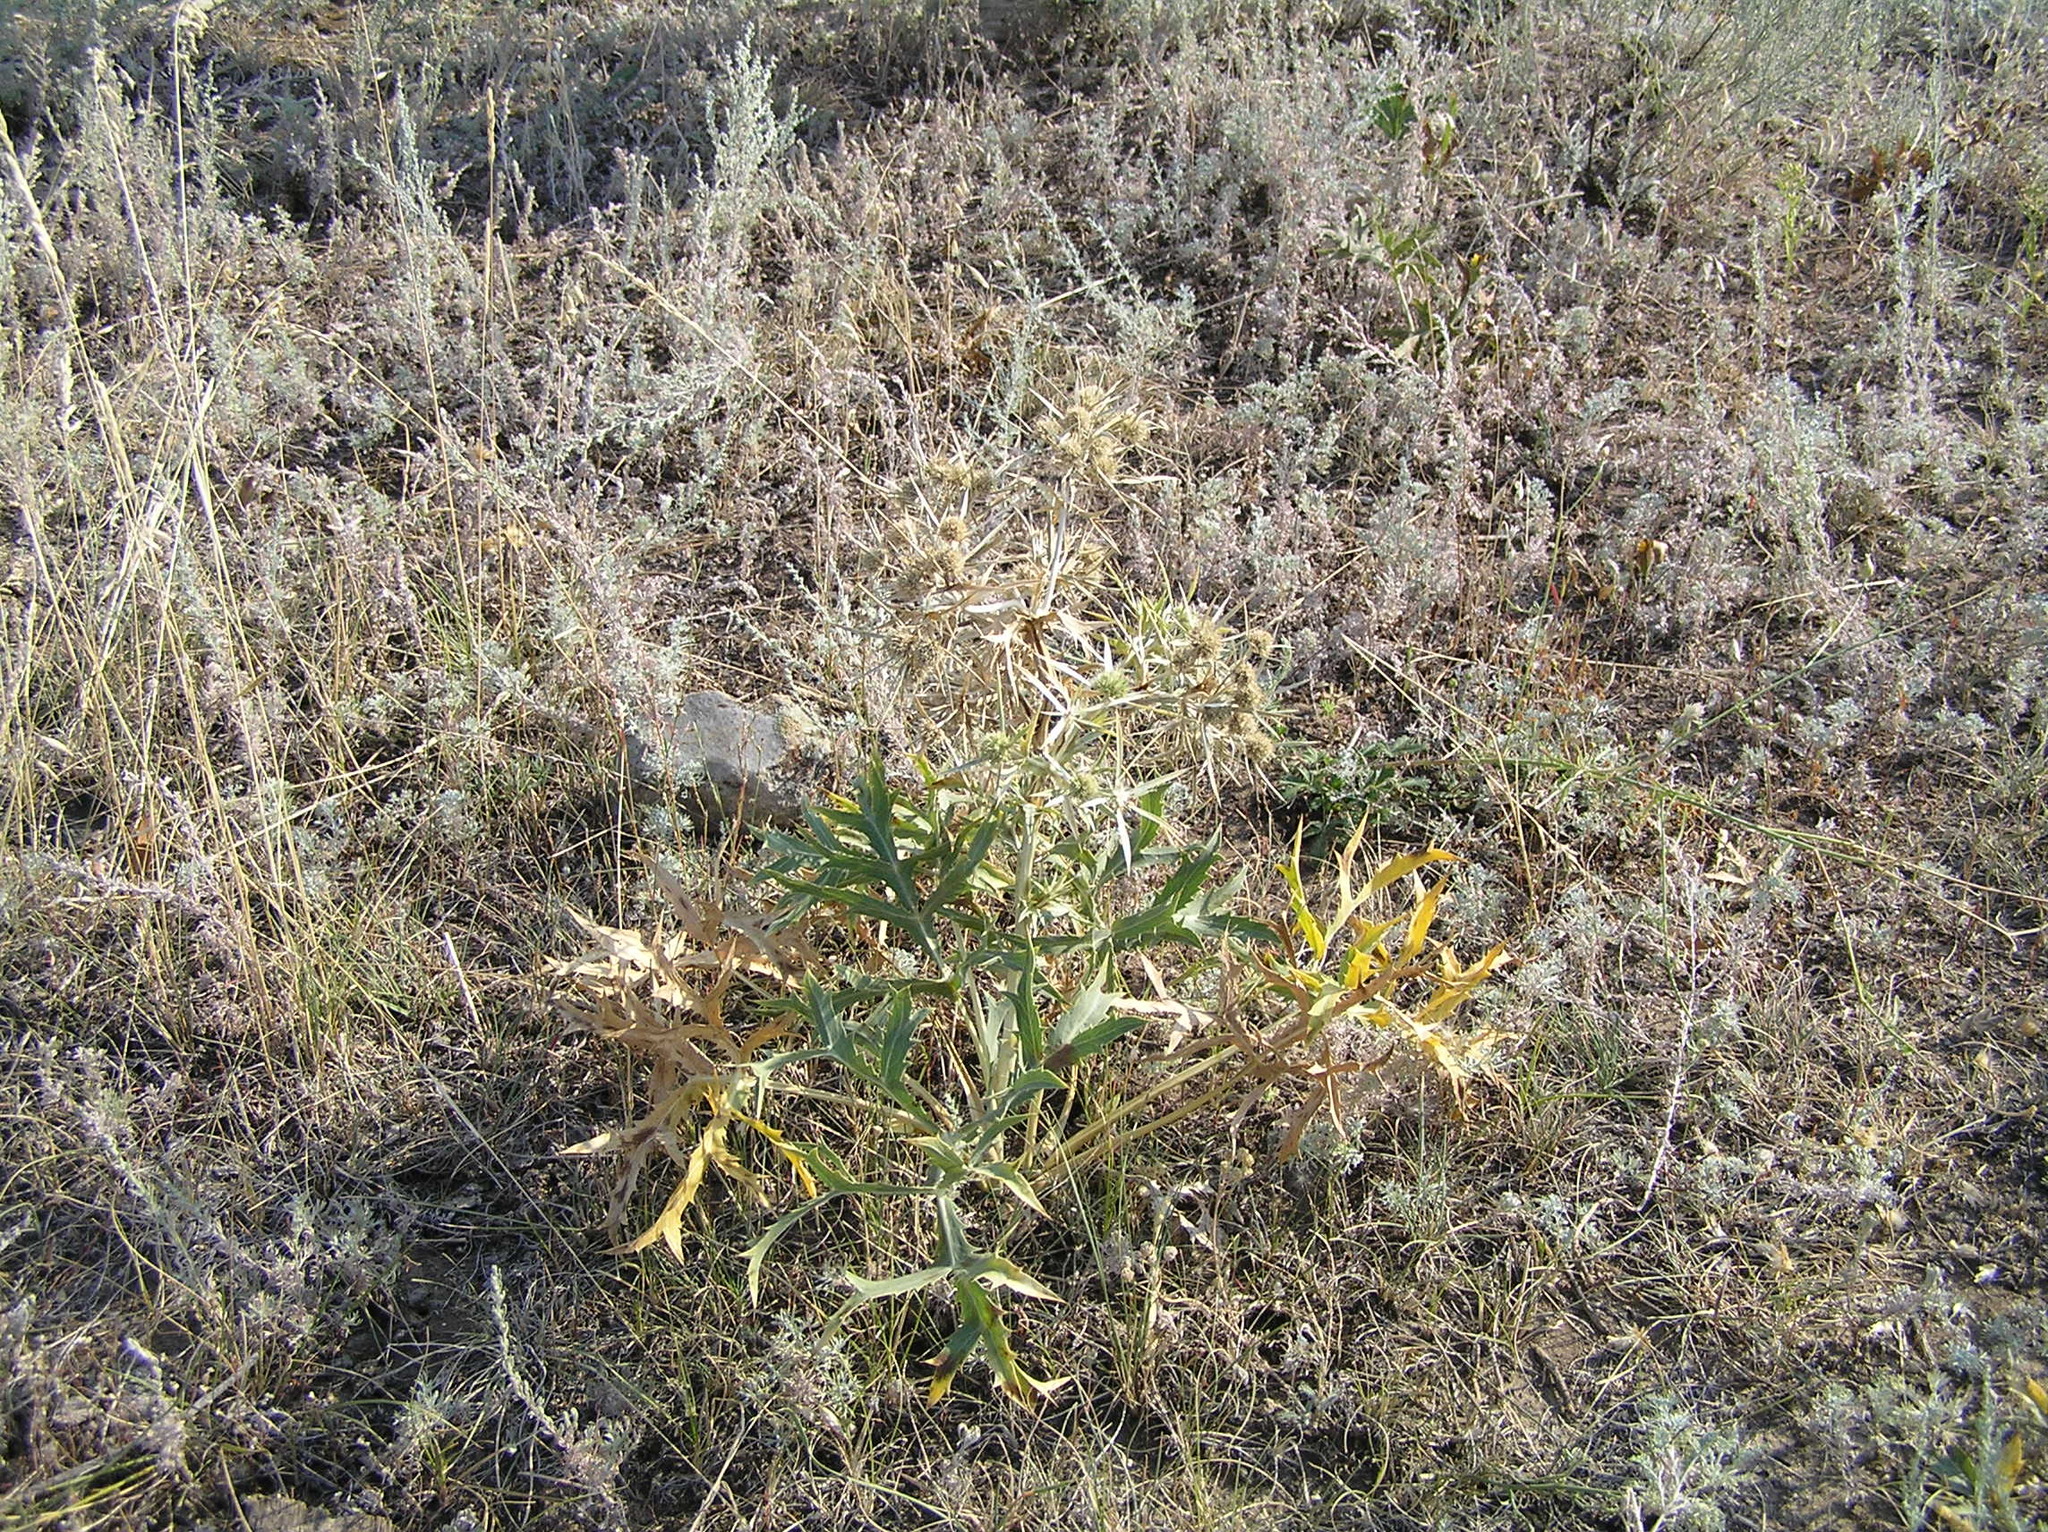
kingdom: Plantae
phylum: Tracheophyta
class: Magnoliopsida
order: Apiales
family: Apiaceae
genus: Eryngium
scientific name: Eryngium campestre
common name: Field eryngo
